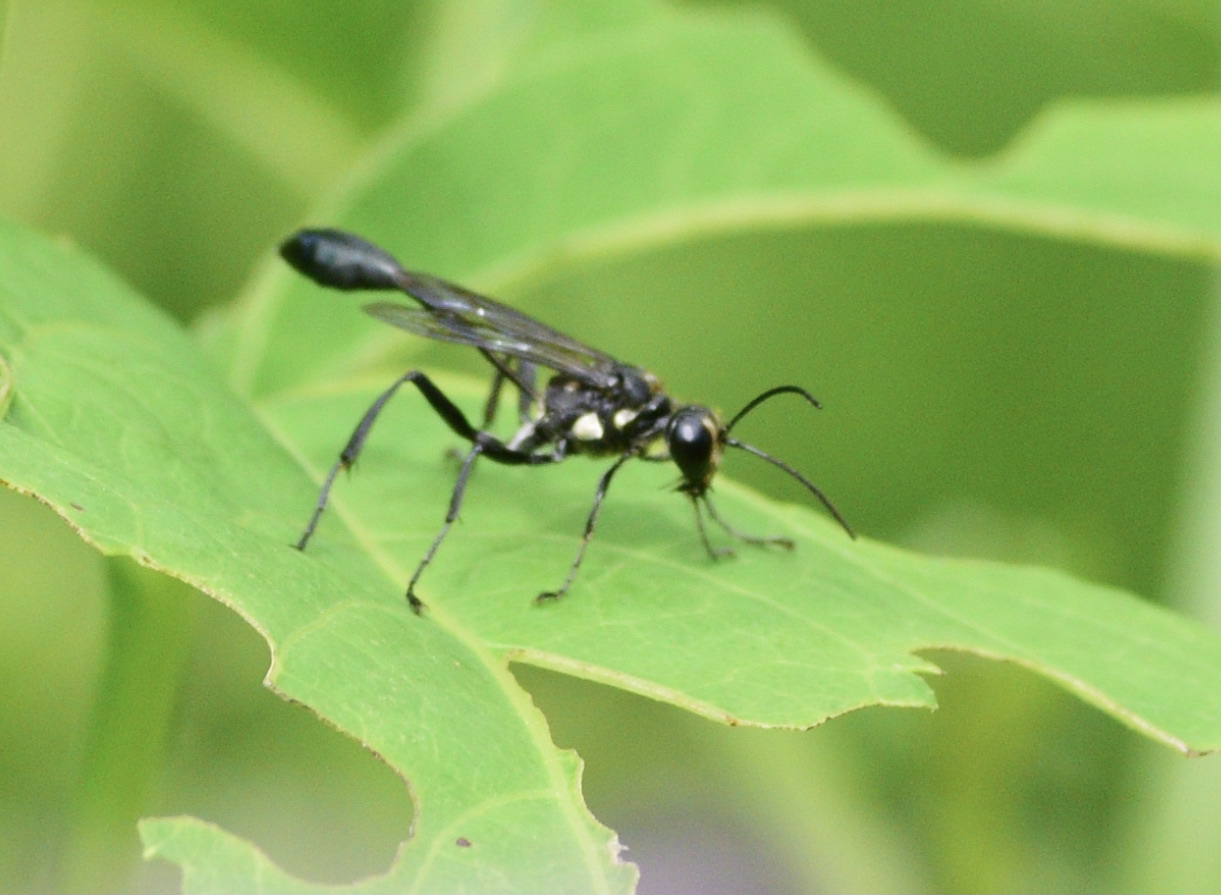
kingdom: Animalia
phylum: Arthropoda
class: Insecta
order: Hymenoptera
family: Sphecidae
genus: Eremnophila
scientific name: Eremnophila aureonotata
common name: Gold-marked thread-waisted wasp
